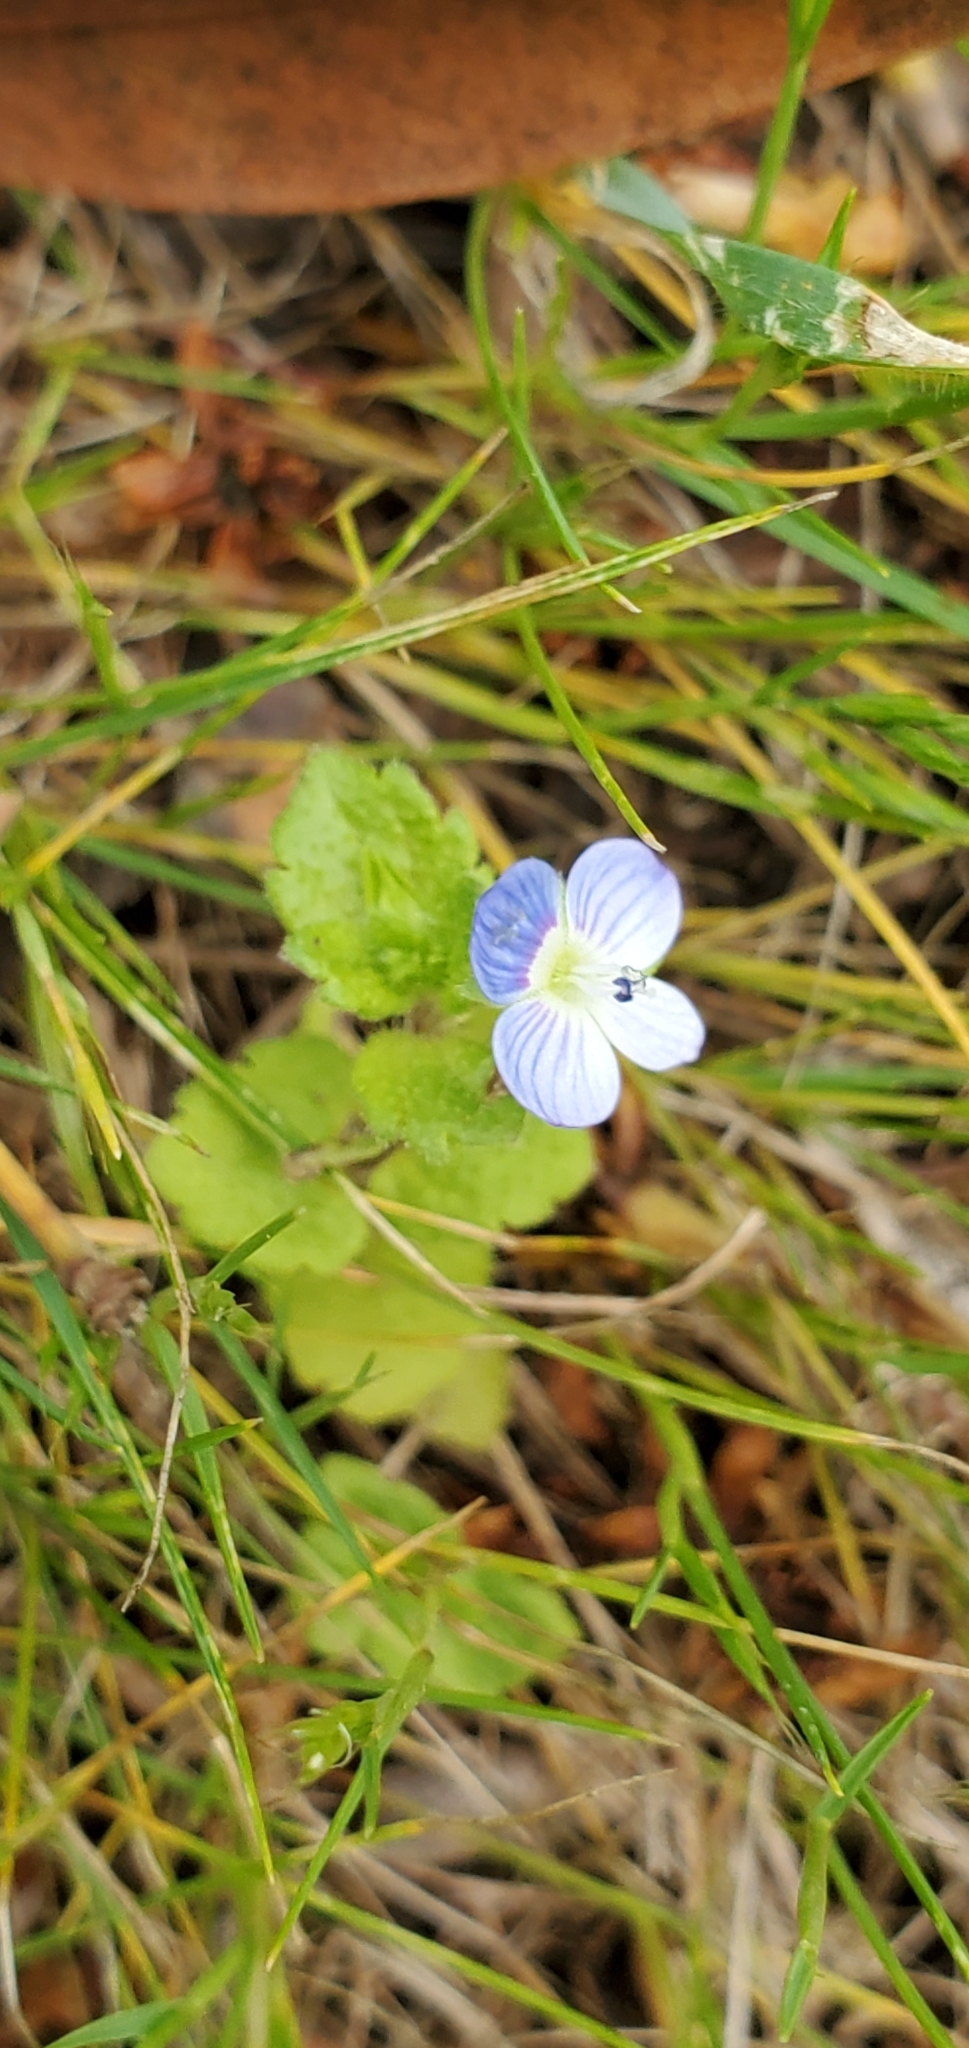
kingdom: Plantae
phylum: Tracheophyta
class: Magnoliopsida
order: Lamiales
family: Plantaginaceae
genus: Veronica
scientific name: Veronica persica
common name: Common field-speedwell
